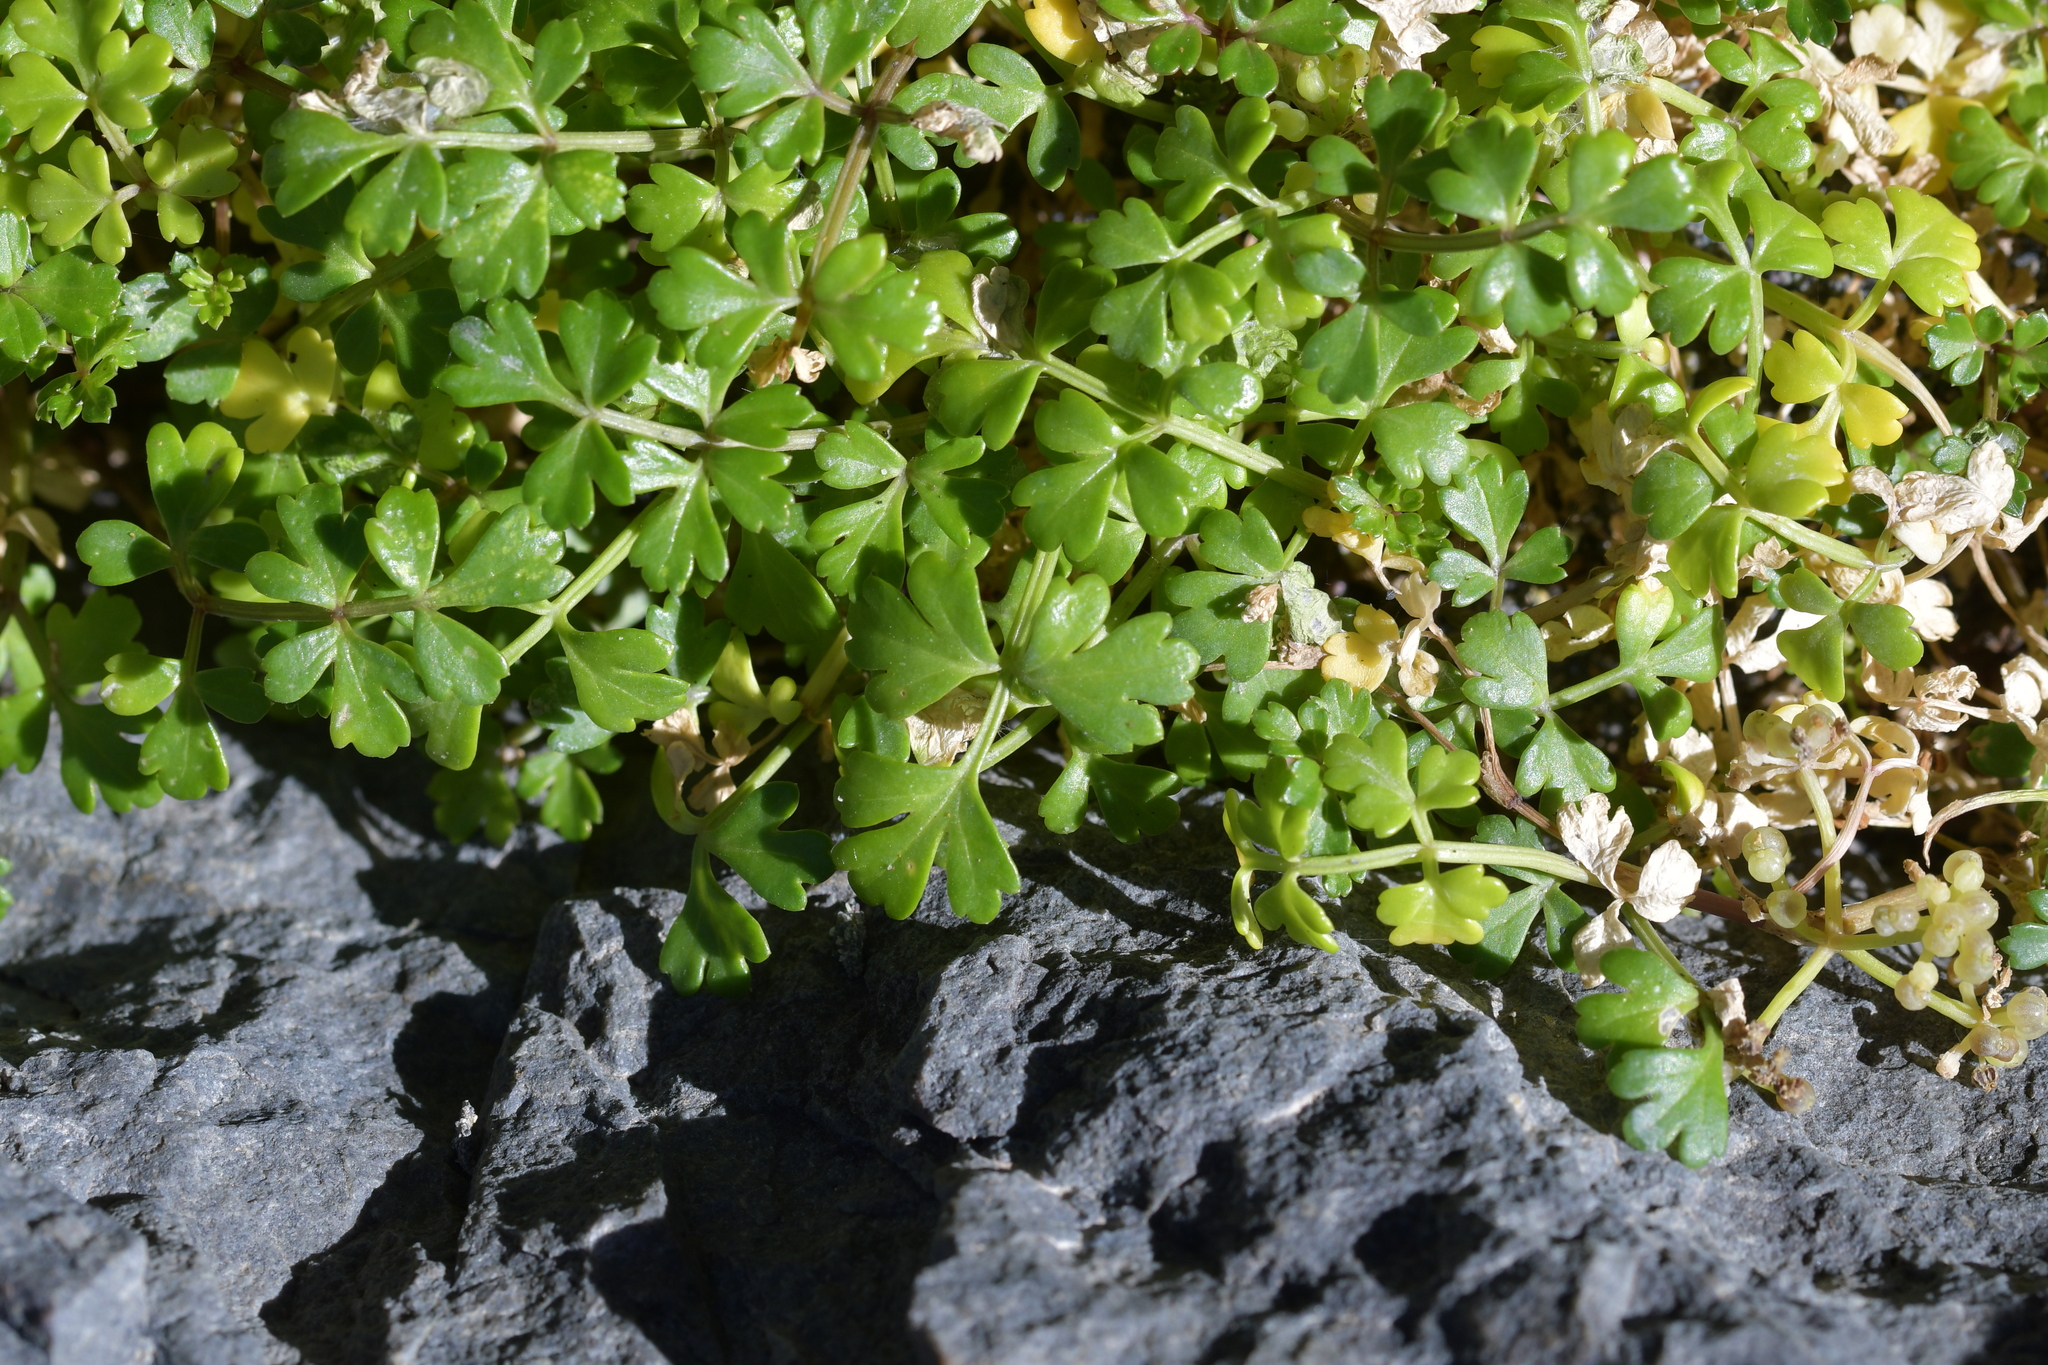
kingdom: Plantae
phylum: Tracheophyta
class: Magnoliopsida
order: Apiales
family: Apiaceae
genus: Apium
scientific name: Apium prostratum
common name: Prostrate marshwort
